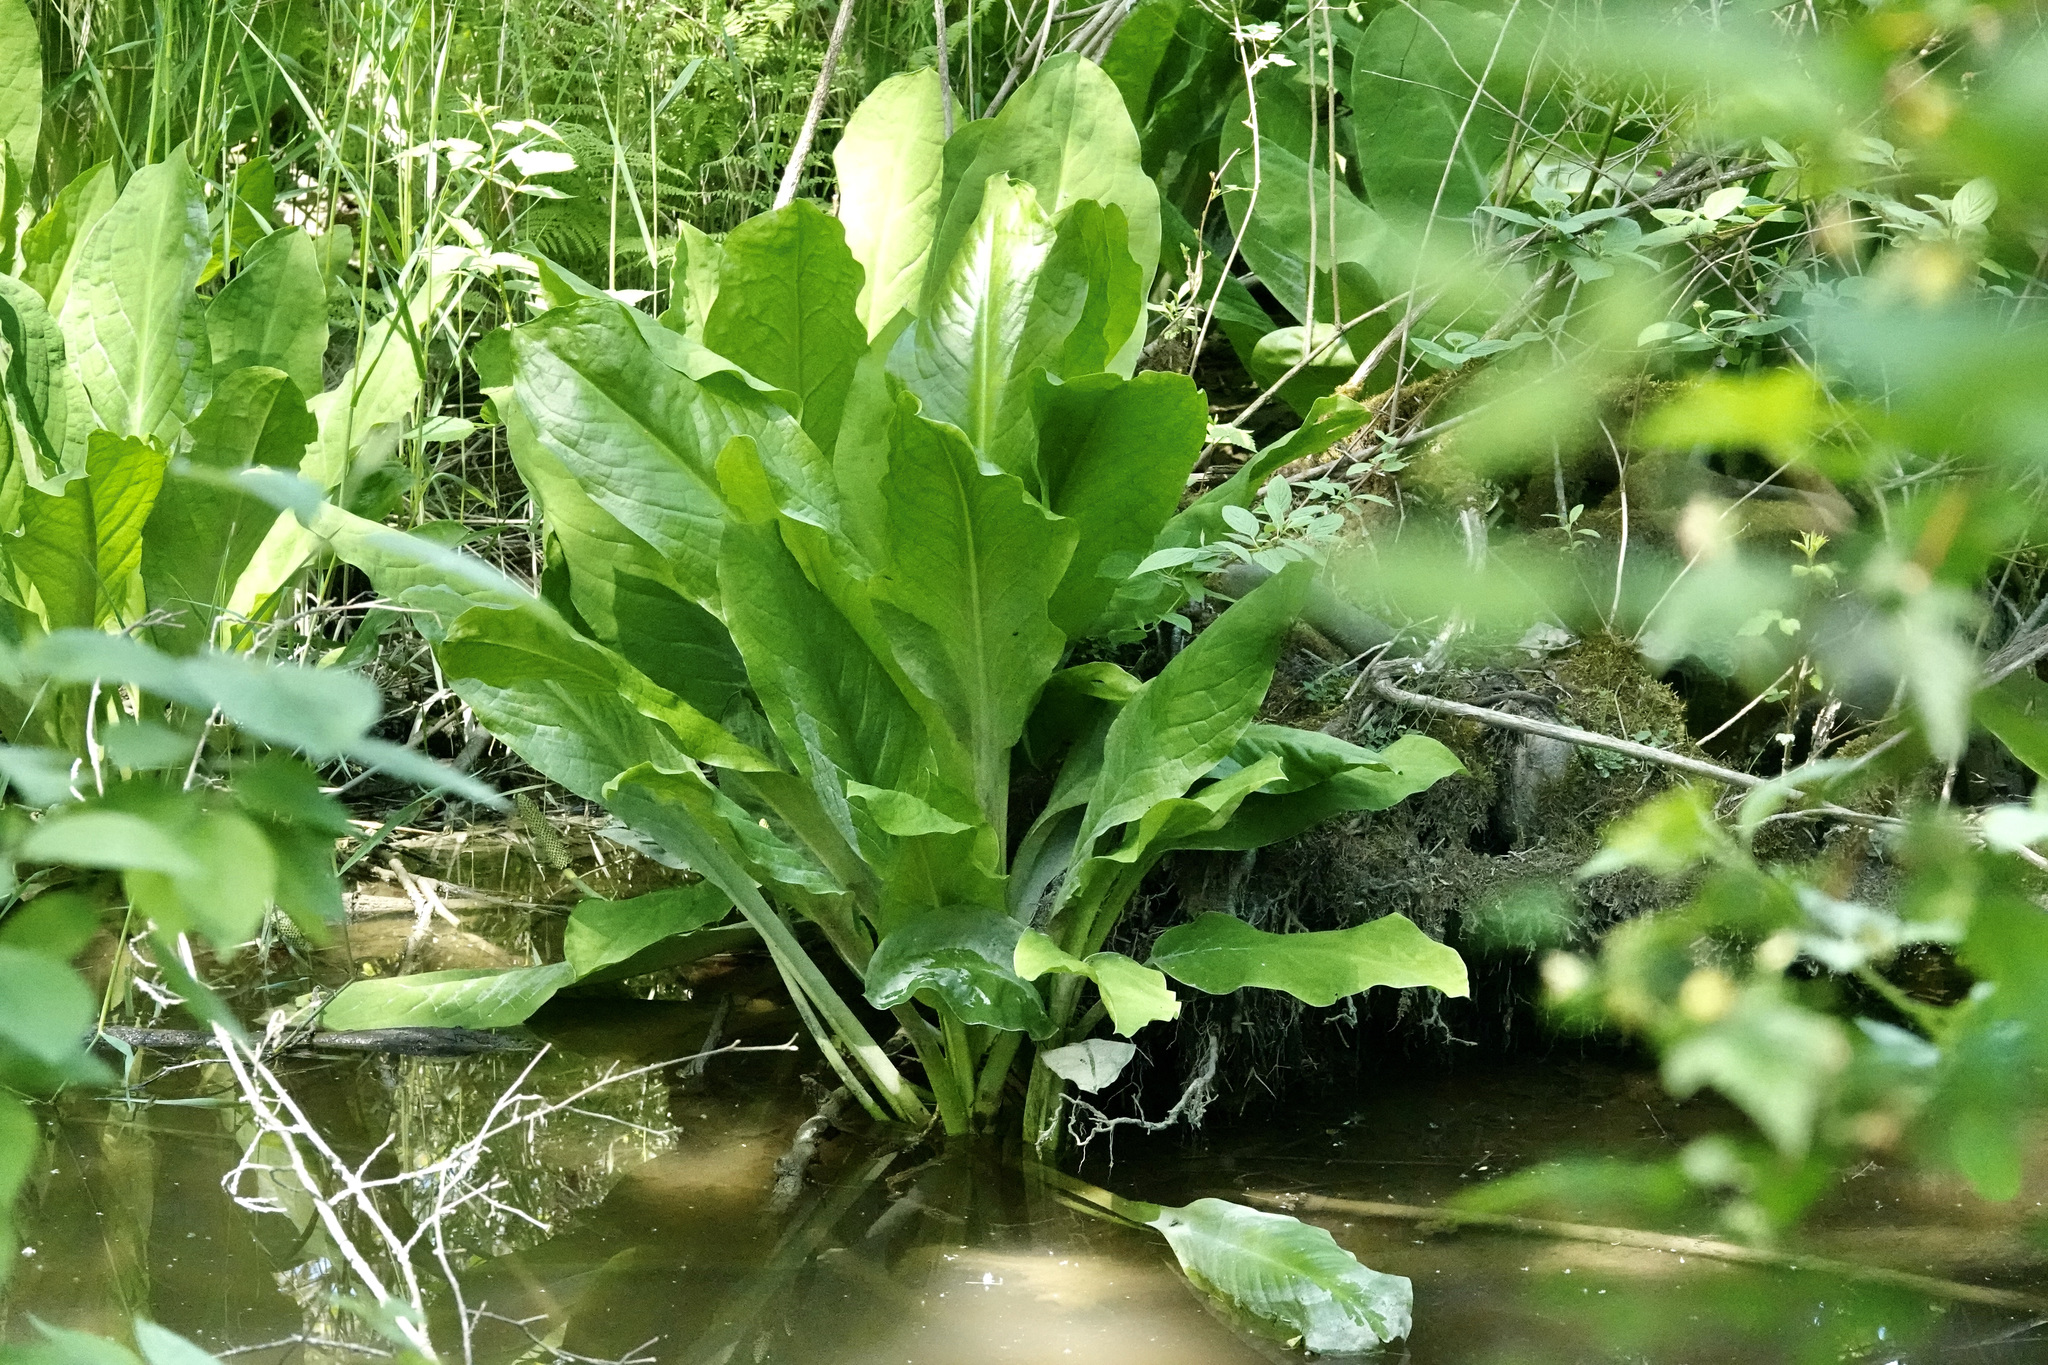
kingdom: Plantae
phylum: Tracheophyta
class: Liliopsida
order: Alismatales
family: Araceae
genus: Lysichiton
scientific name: Lysichiton americanus
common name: American skunk cabbage
